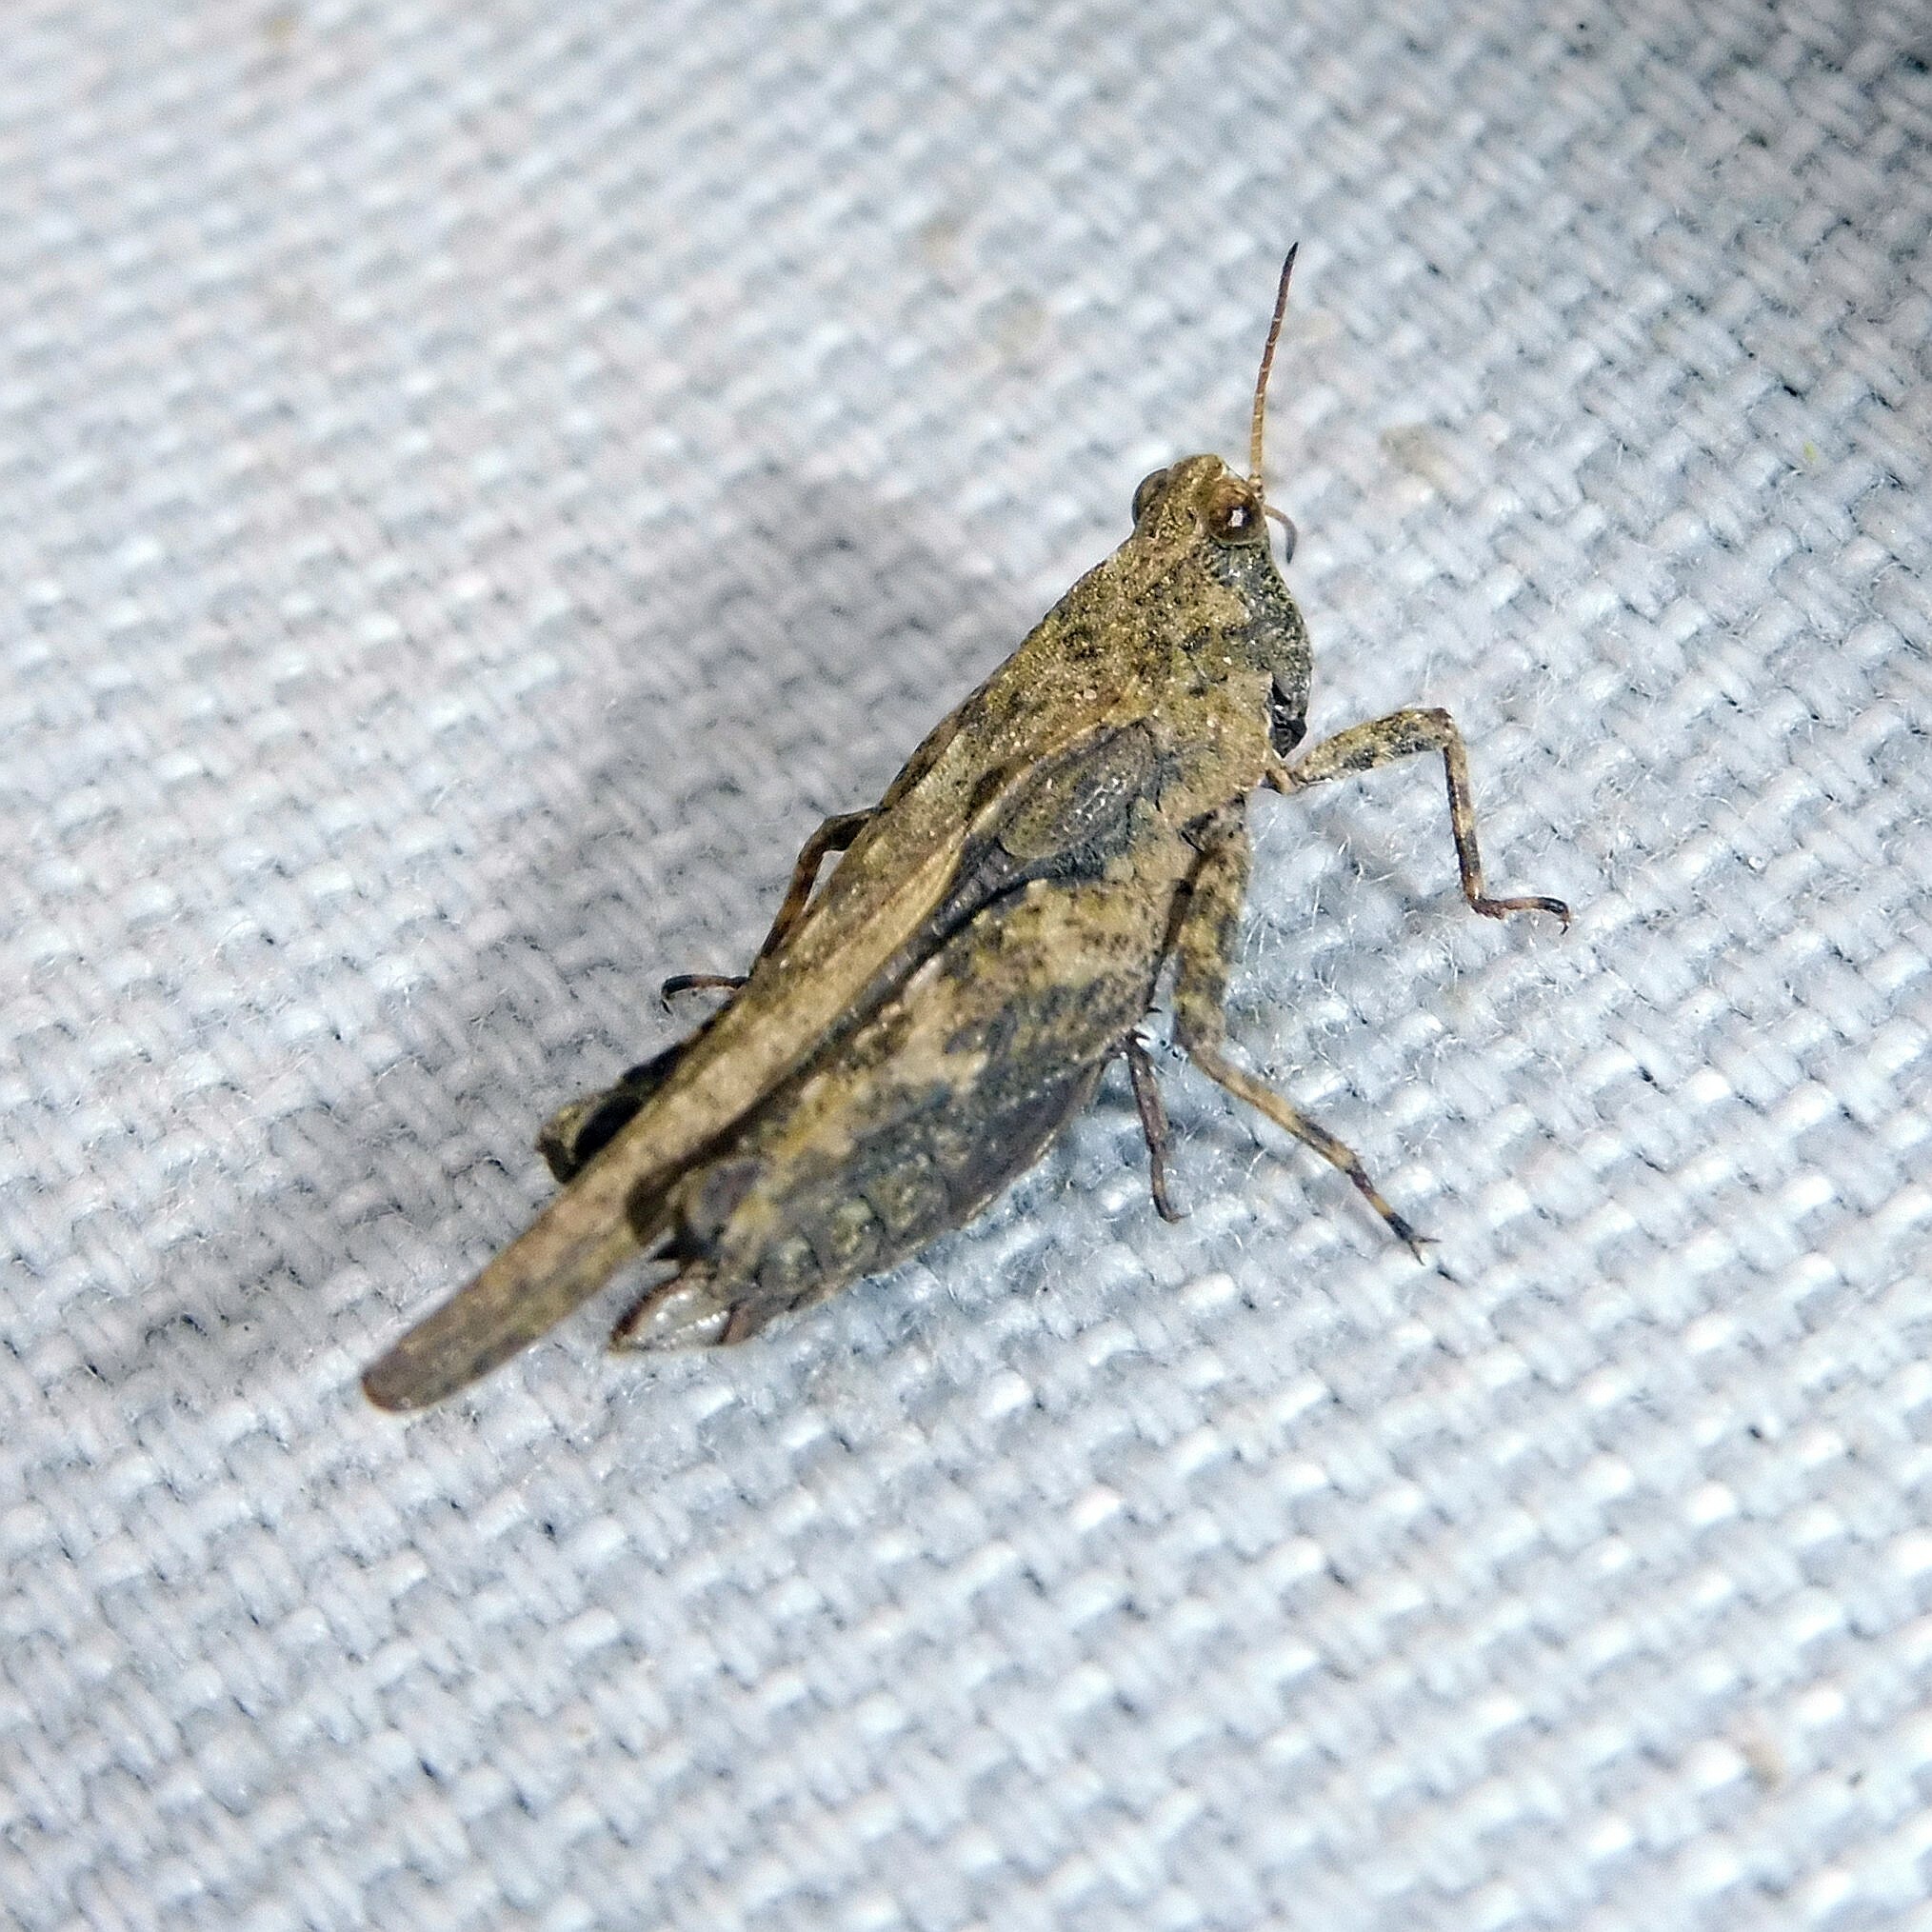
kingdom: Animalia
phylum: Arthropoda
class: Insecta
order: Orthoptera
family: Tetrigidae
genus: Tetrix
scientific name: Tetrix subulata
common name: Slender ground-hopper
